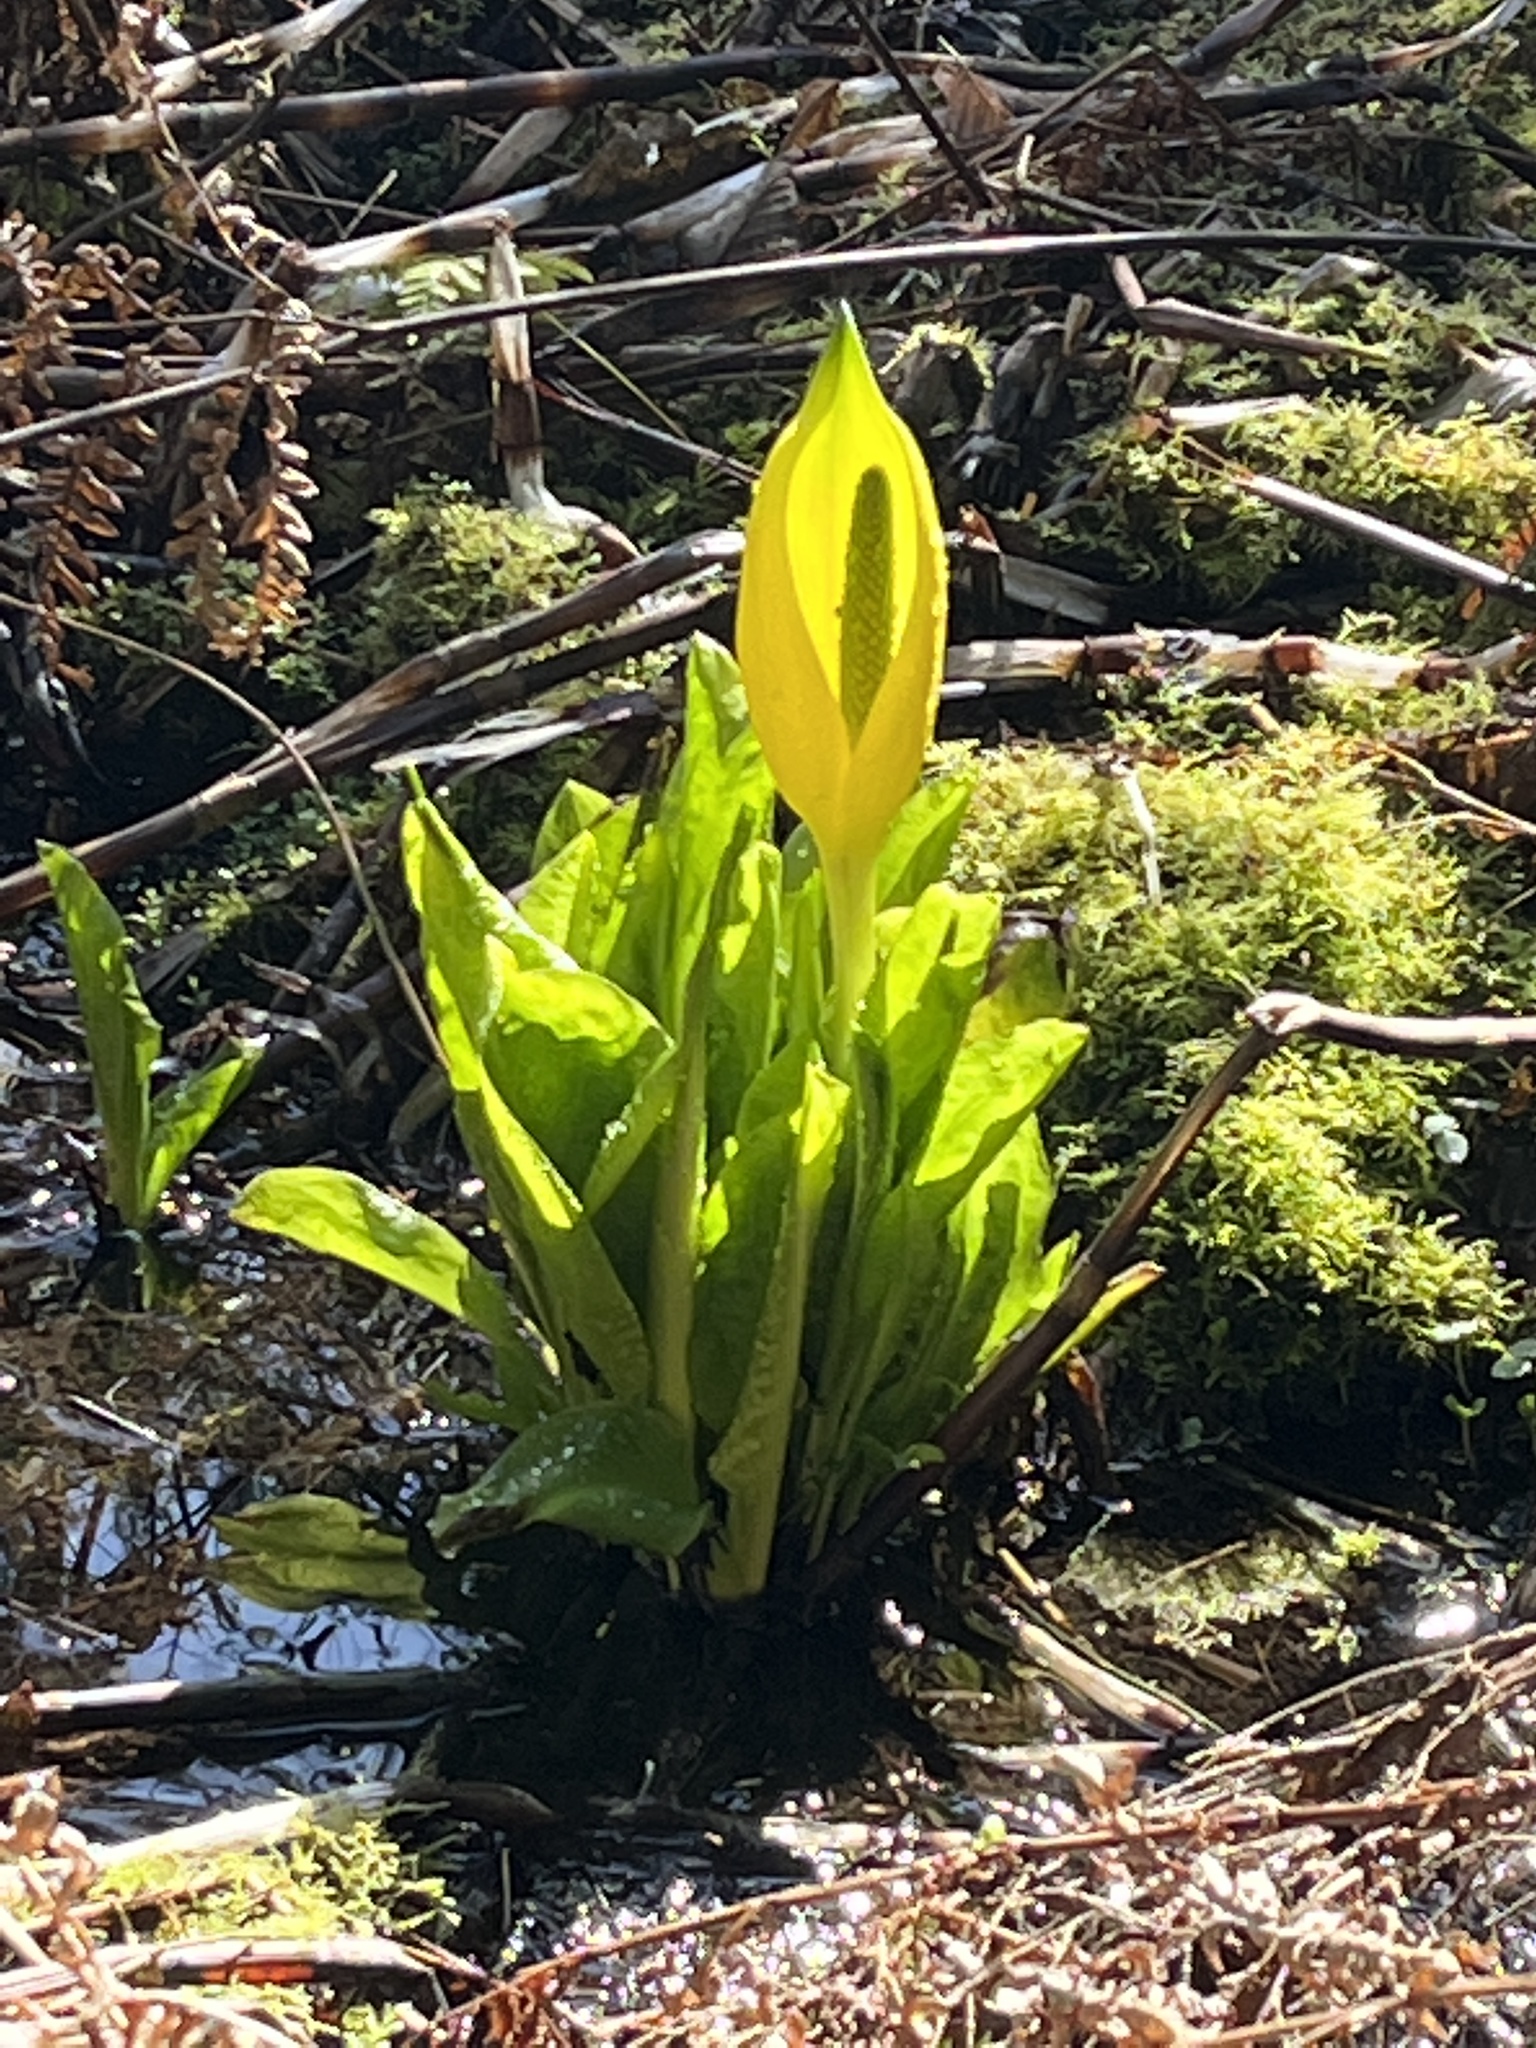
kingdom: Plantae
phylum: Tracheophyta
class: Liliopsida
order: Alismatales
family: Araceae
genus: Lysichiton
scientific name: Lysichiton americanus
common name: American skunk cabbage
